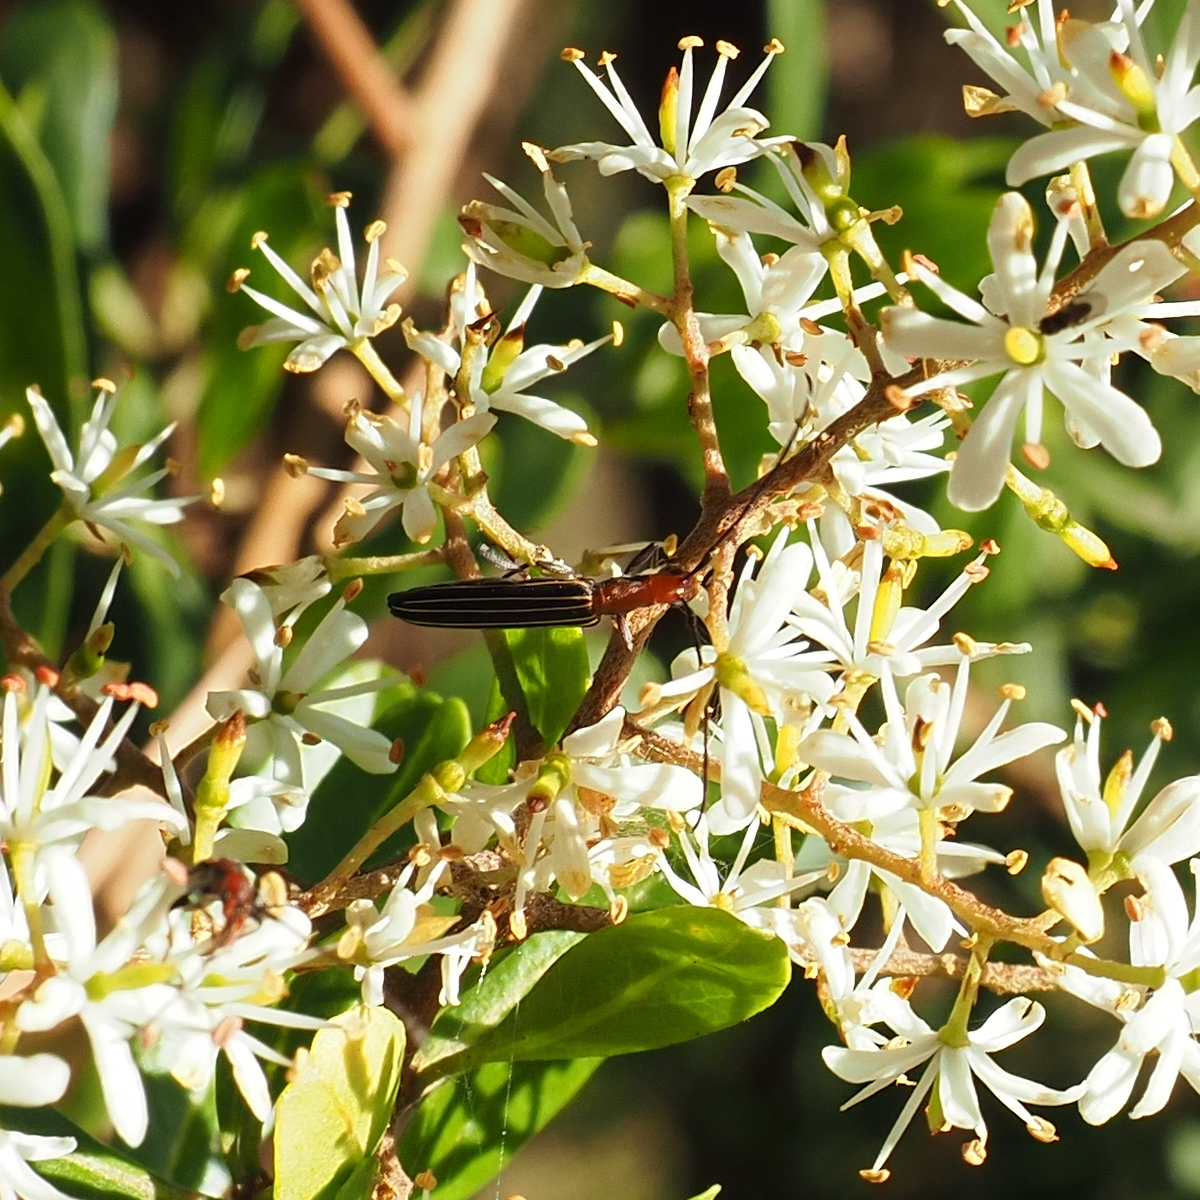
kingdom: Animalia
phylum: Arthropoda
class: Insecta
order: Coleoptera
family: Cerambycidae
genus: Syllitus
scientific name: Syllitus rectus
